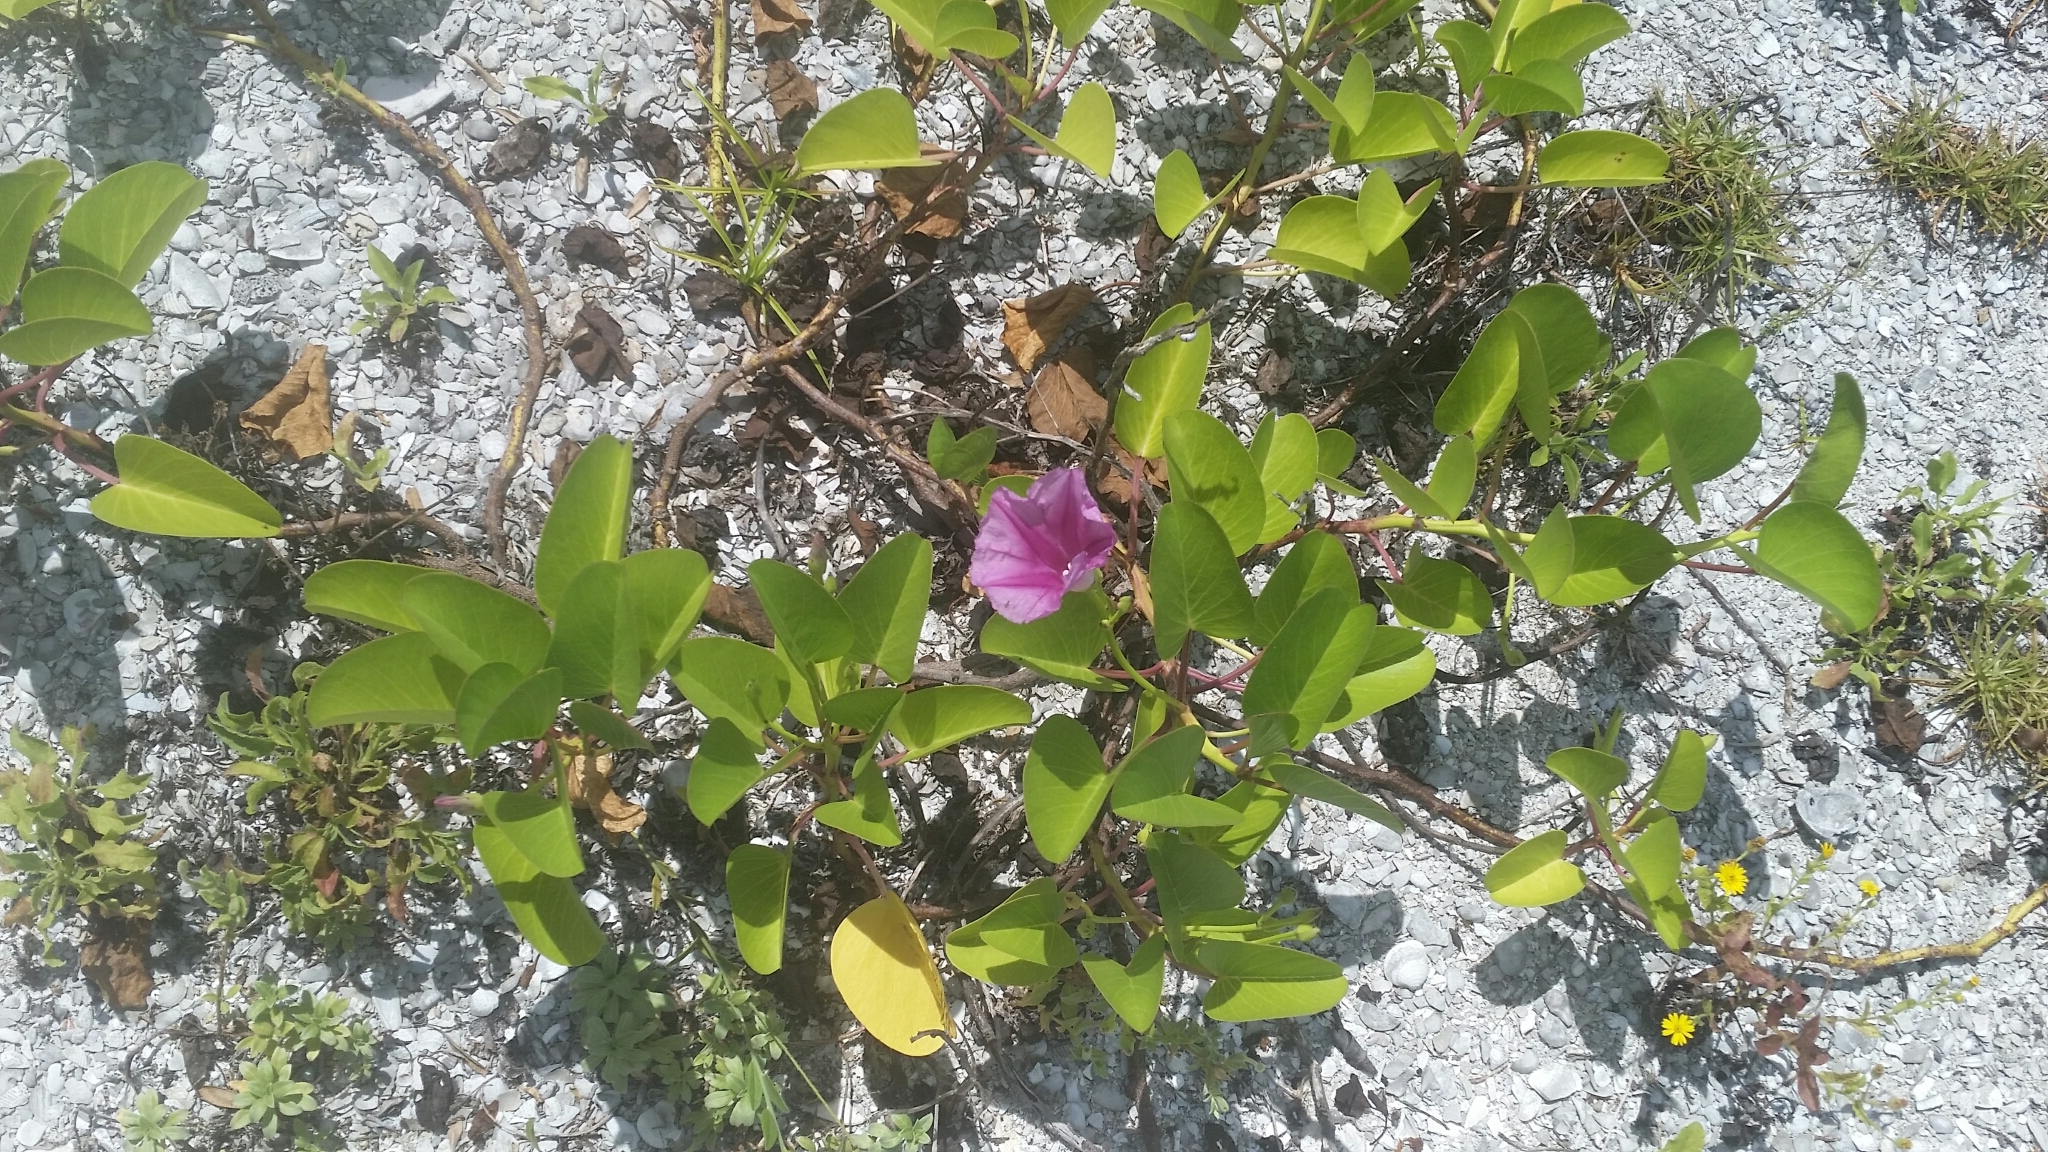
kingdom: Plantae
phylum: Tracheophyta
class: Magnoliopsida
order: Solanales
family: Convolvulaceae
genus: Ipomoea
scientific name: Ipomoea pes-caprae
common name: Beach morning glory
